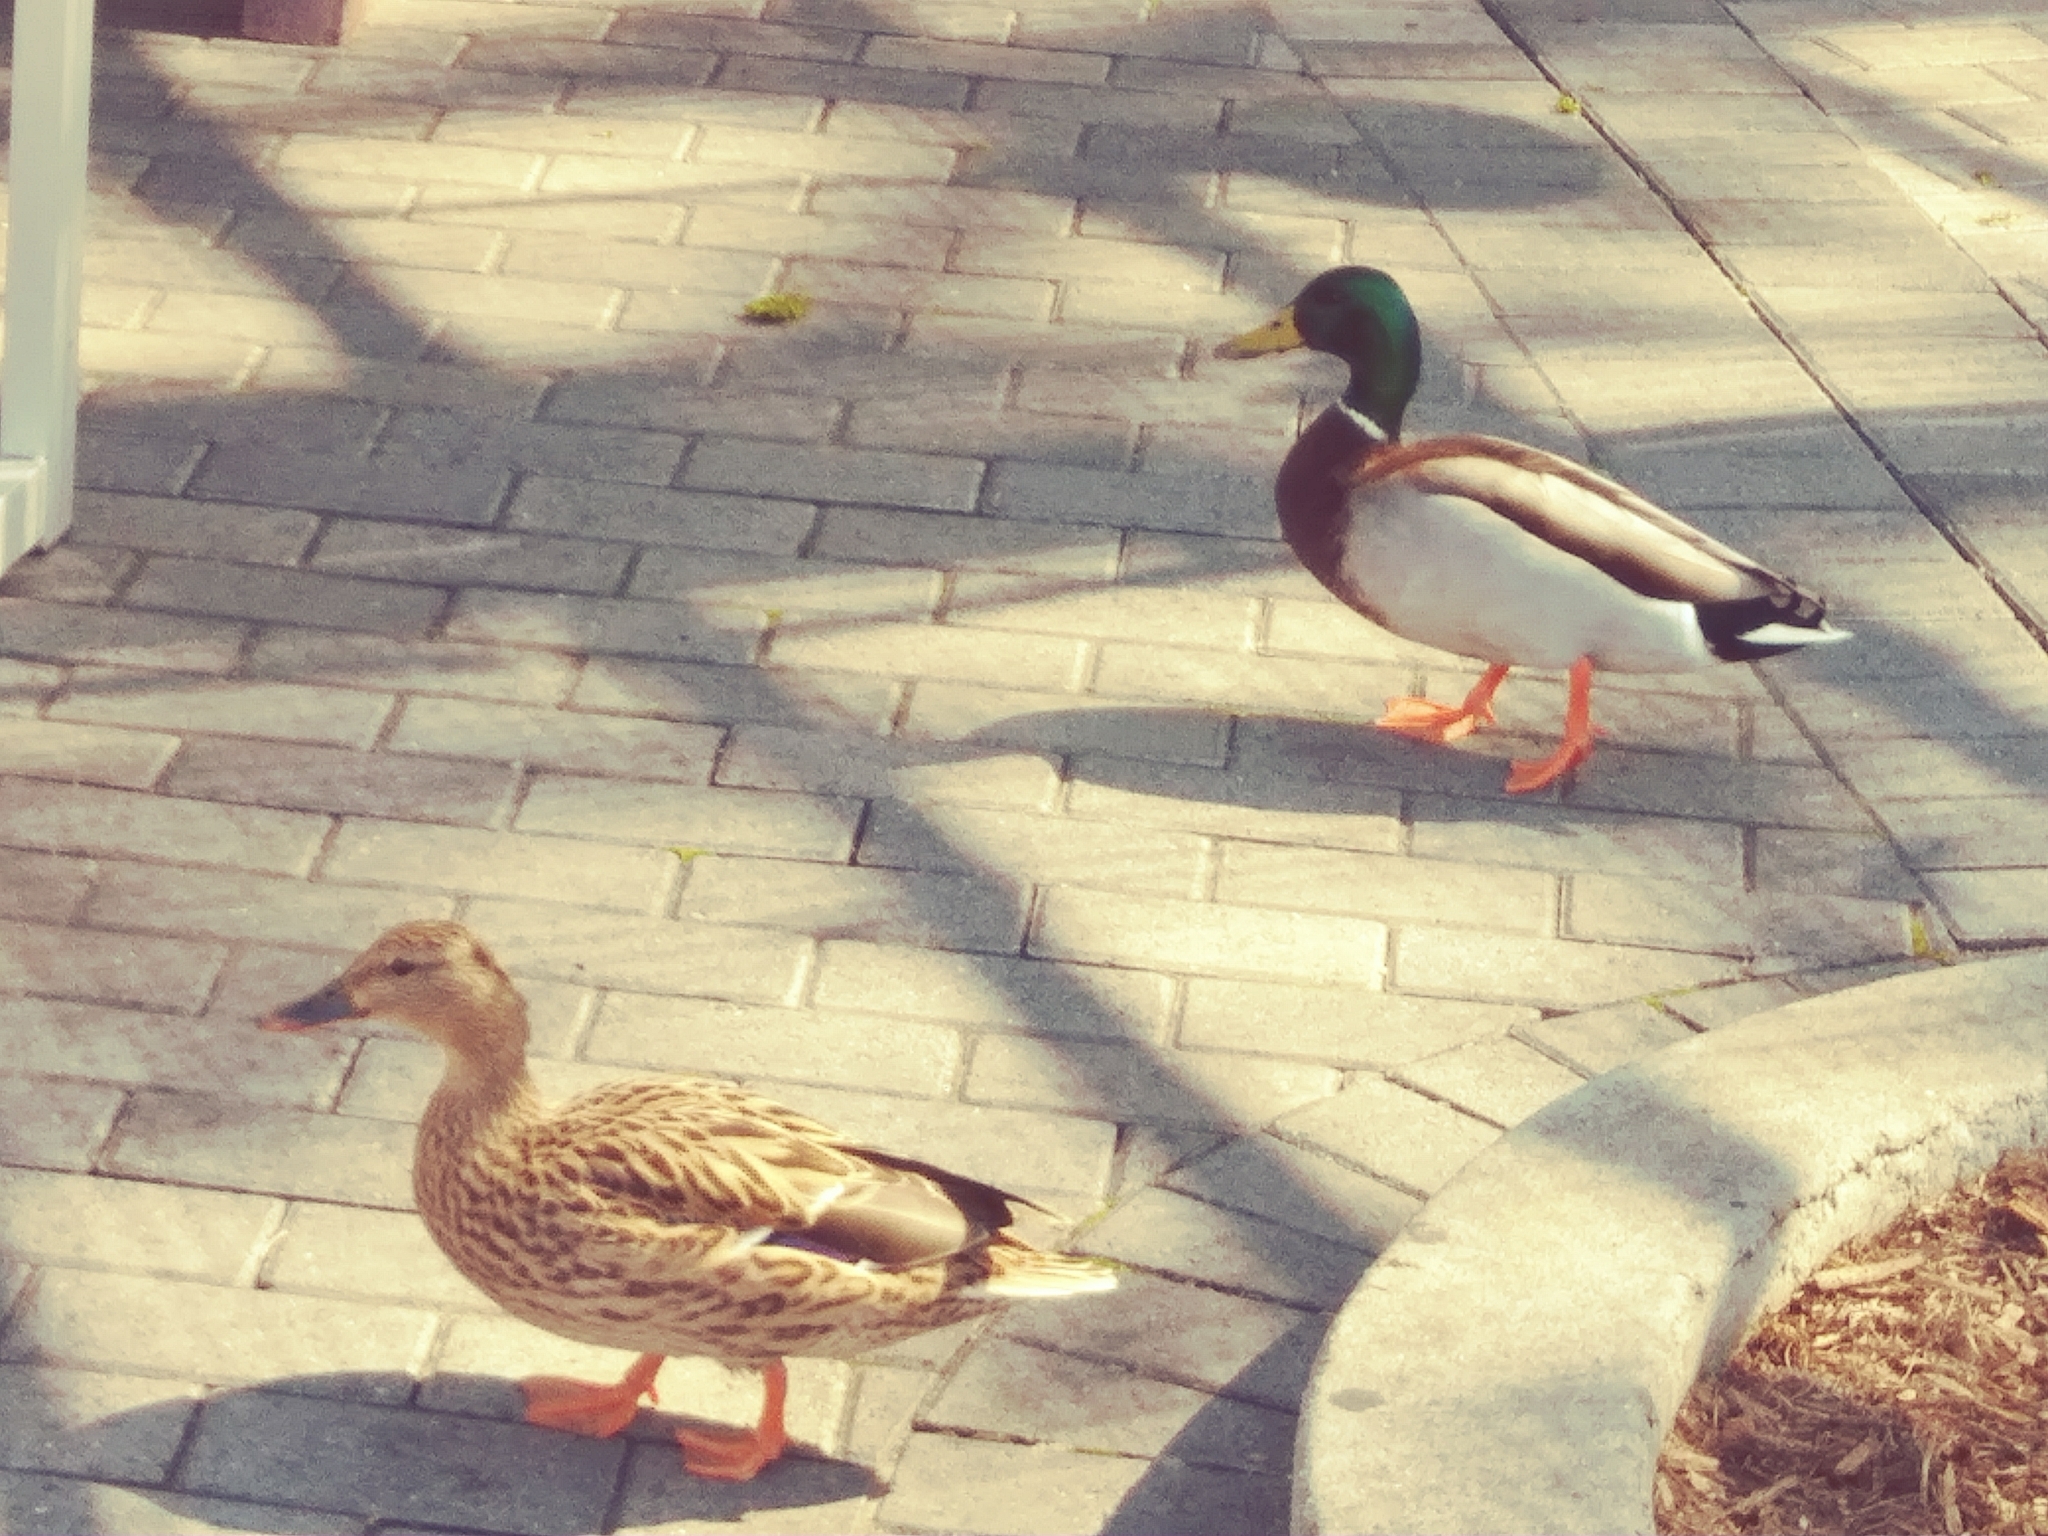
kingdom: Animalia
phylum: Chordata
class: Aves
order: Anseriformes
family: Anatidae
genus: Anas
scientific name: Anas platyrhynchos
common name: Mallard
